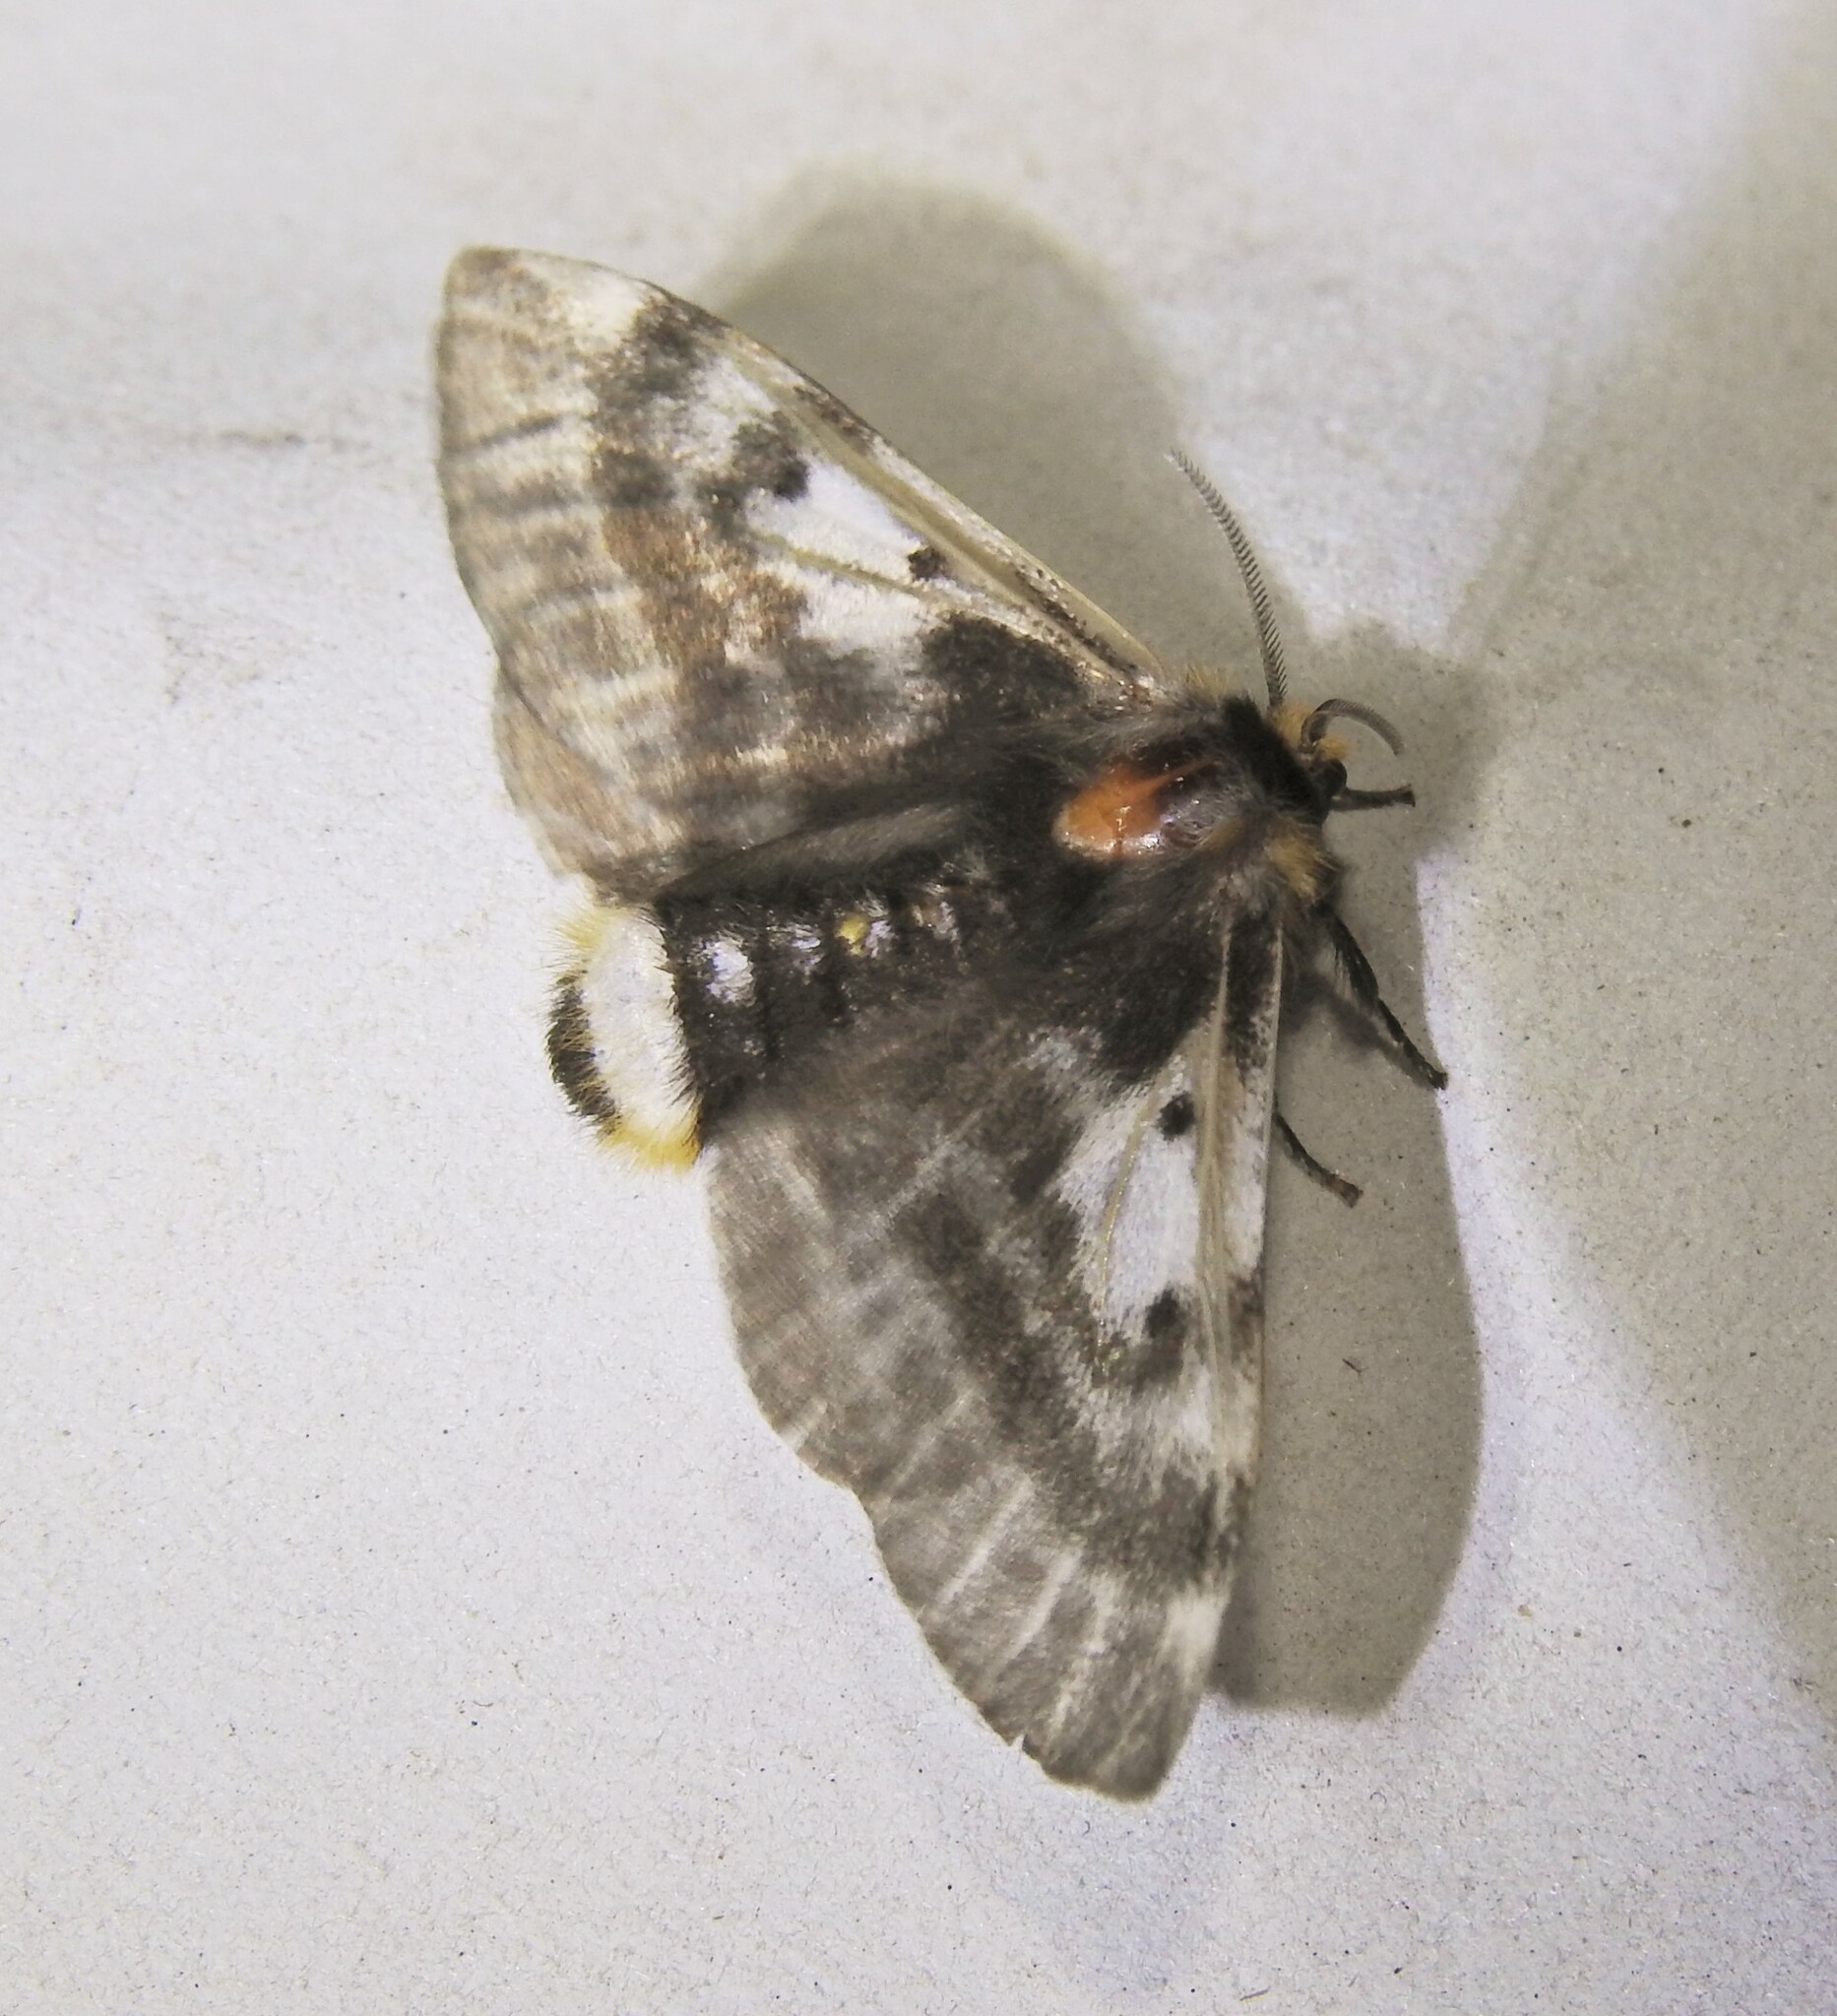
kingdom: Animalia
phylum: Arthropoda
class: Insecta
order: Lepidoptera
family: Anthelidae
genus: Nataxa
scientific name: Nataxa flavescens
